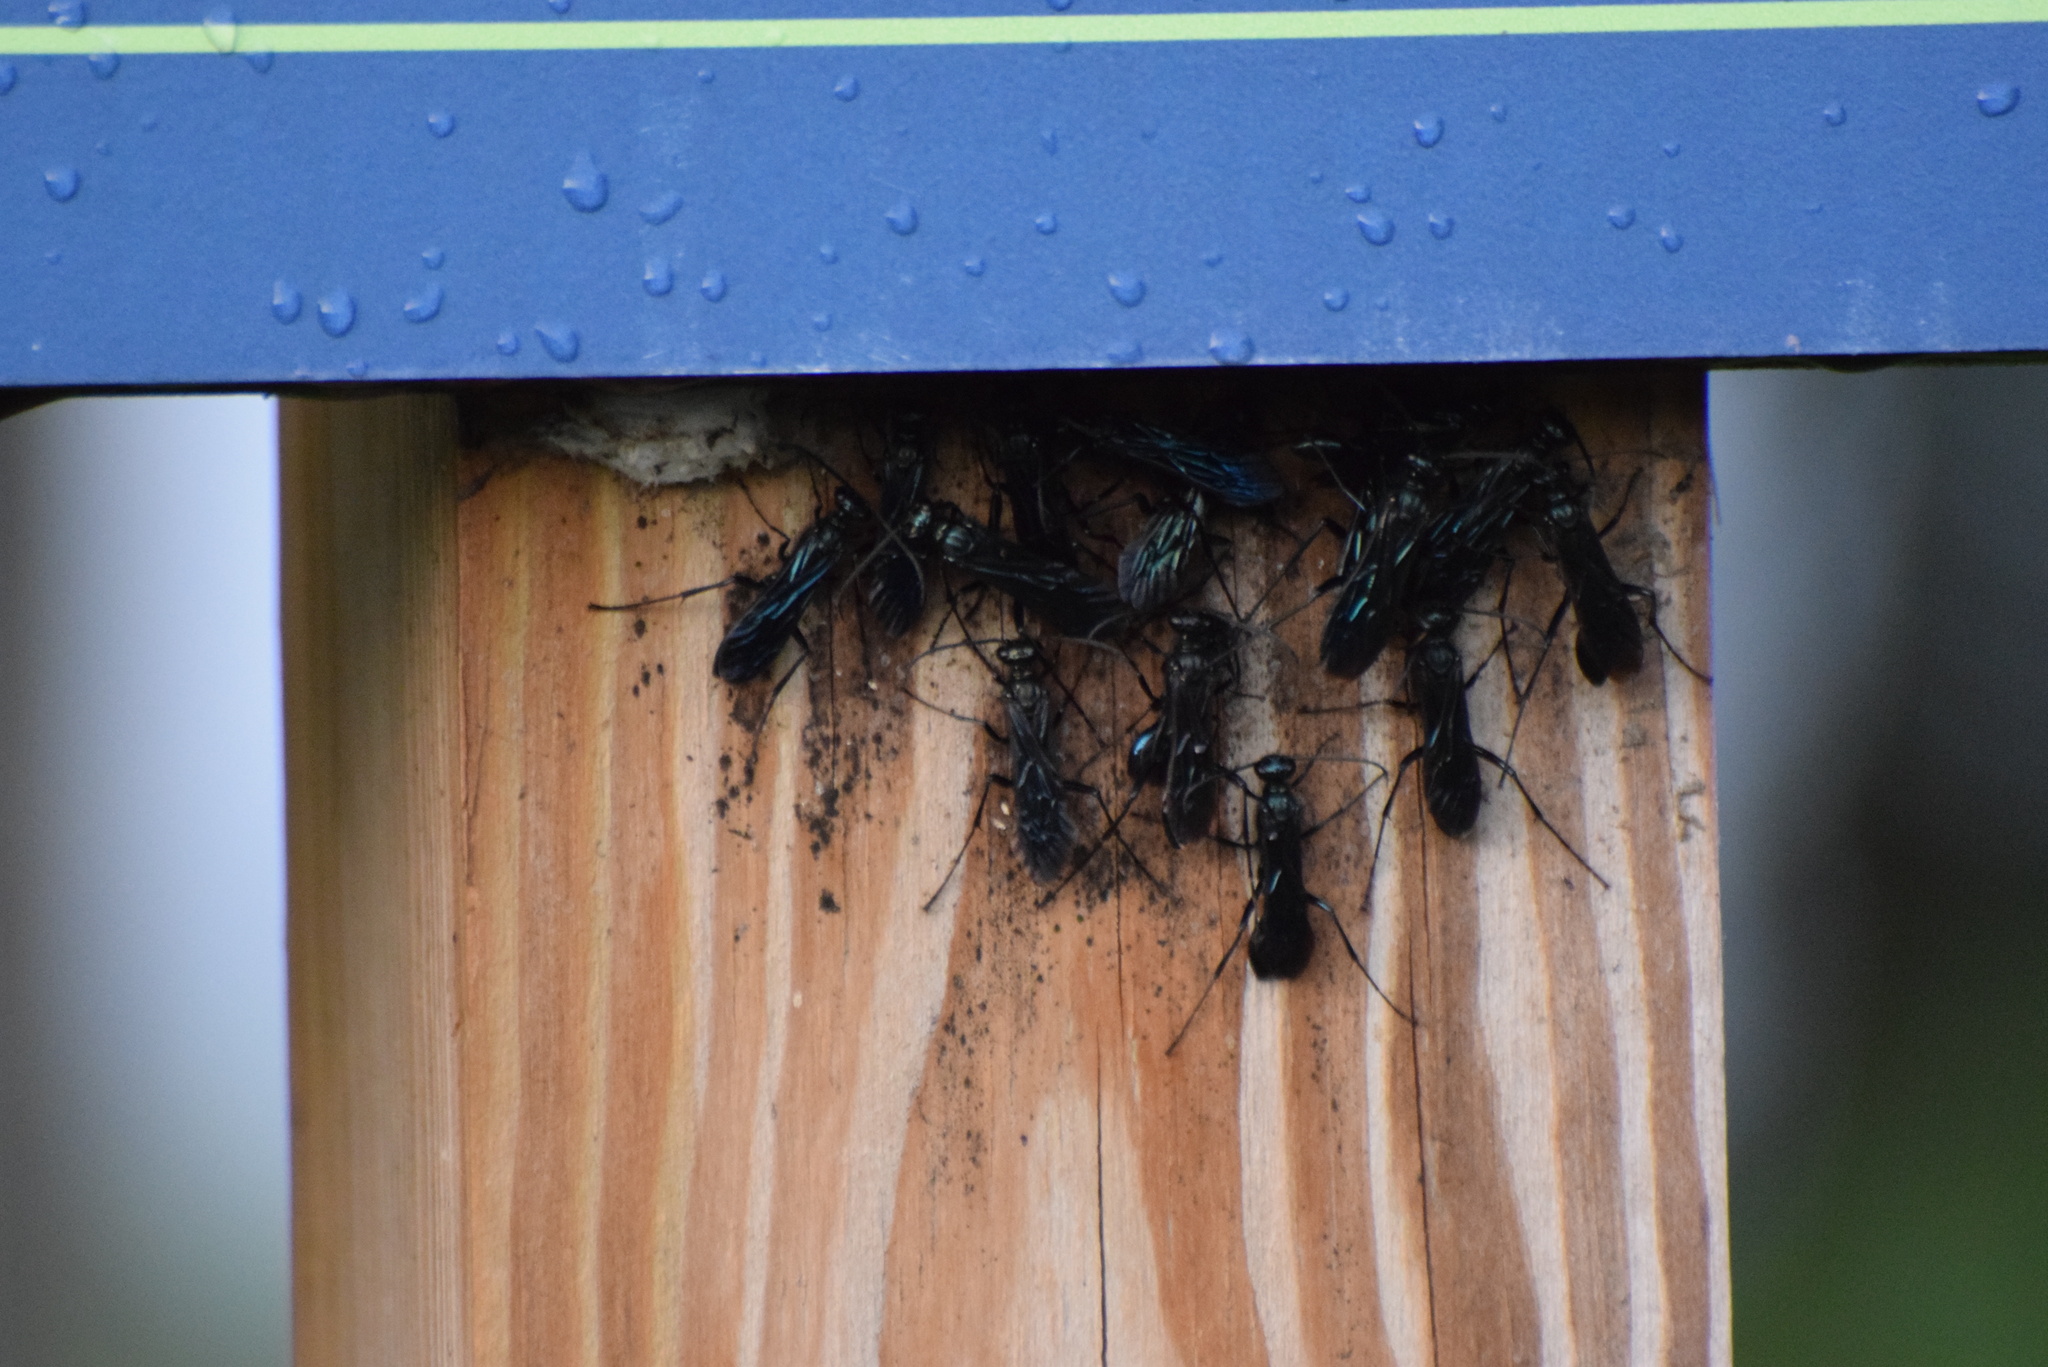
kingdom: Animalia
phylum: Arthropoda
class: Insecta
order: Hymenoptera
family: Sphecidae
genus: Chalybion
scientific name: Chalybion californicum
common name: Mud dauber
